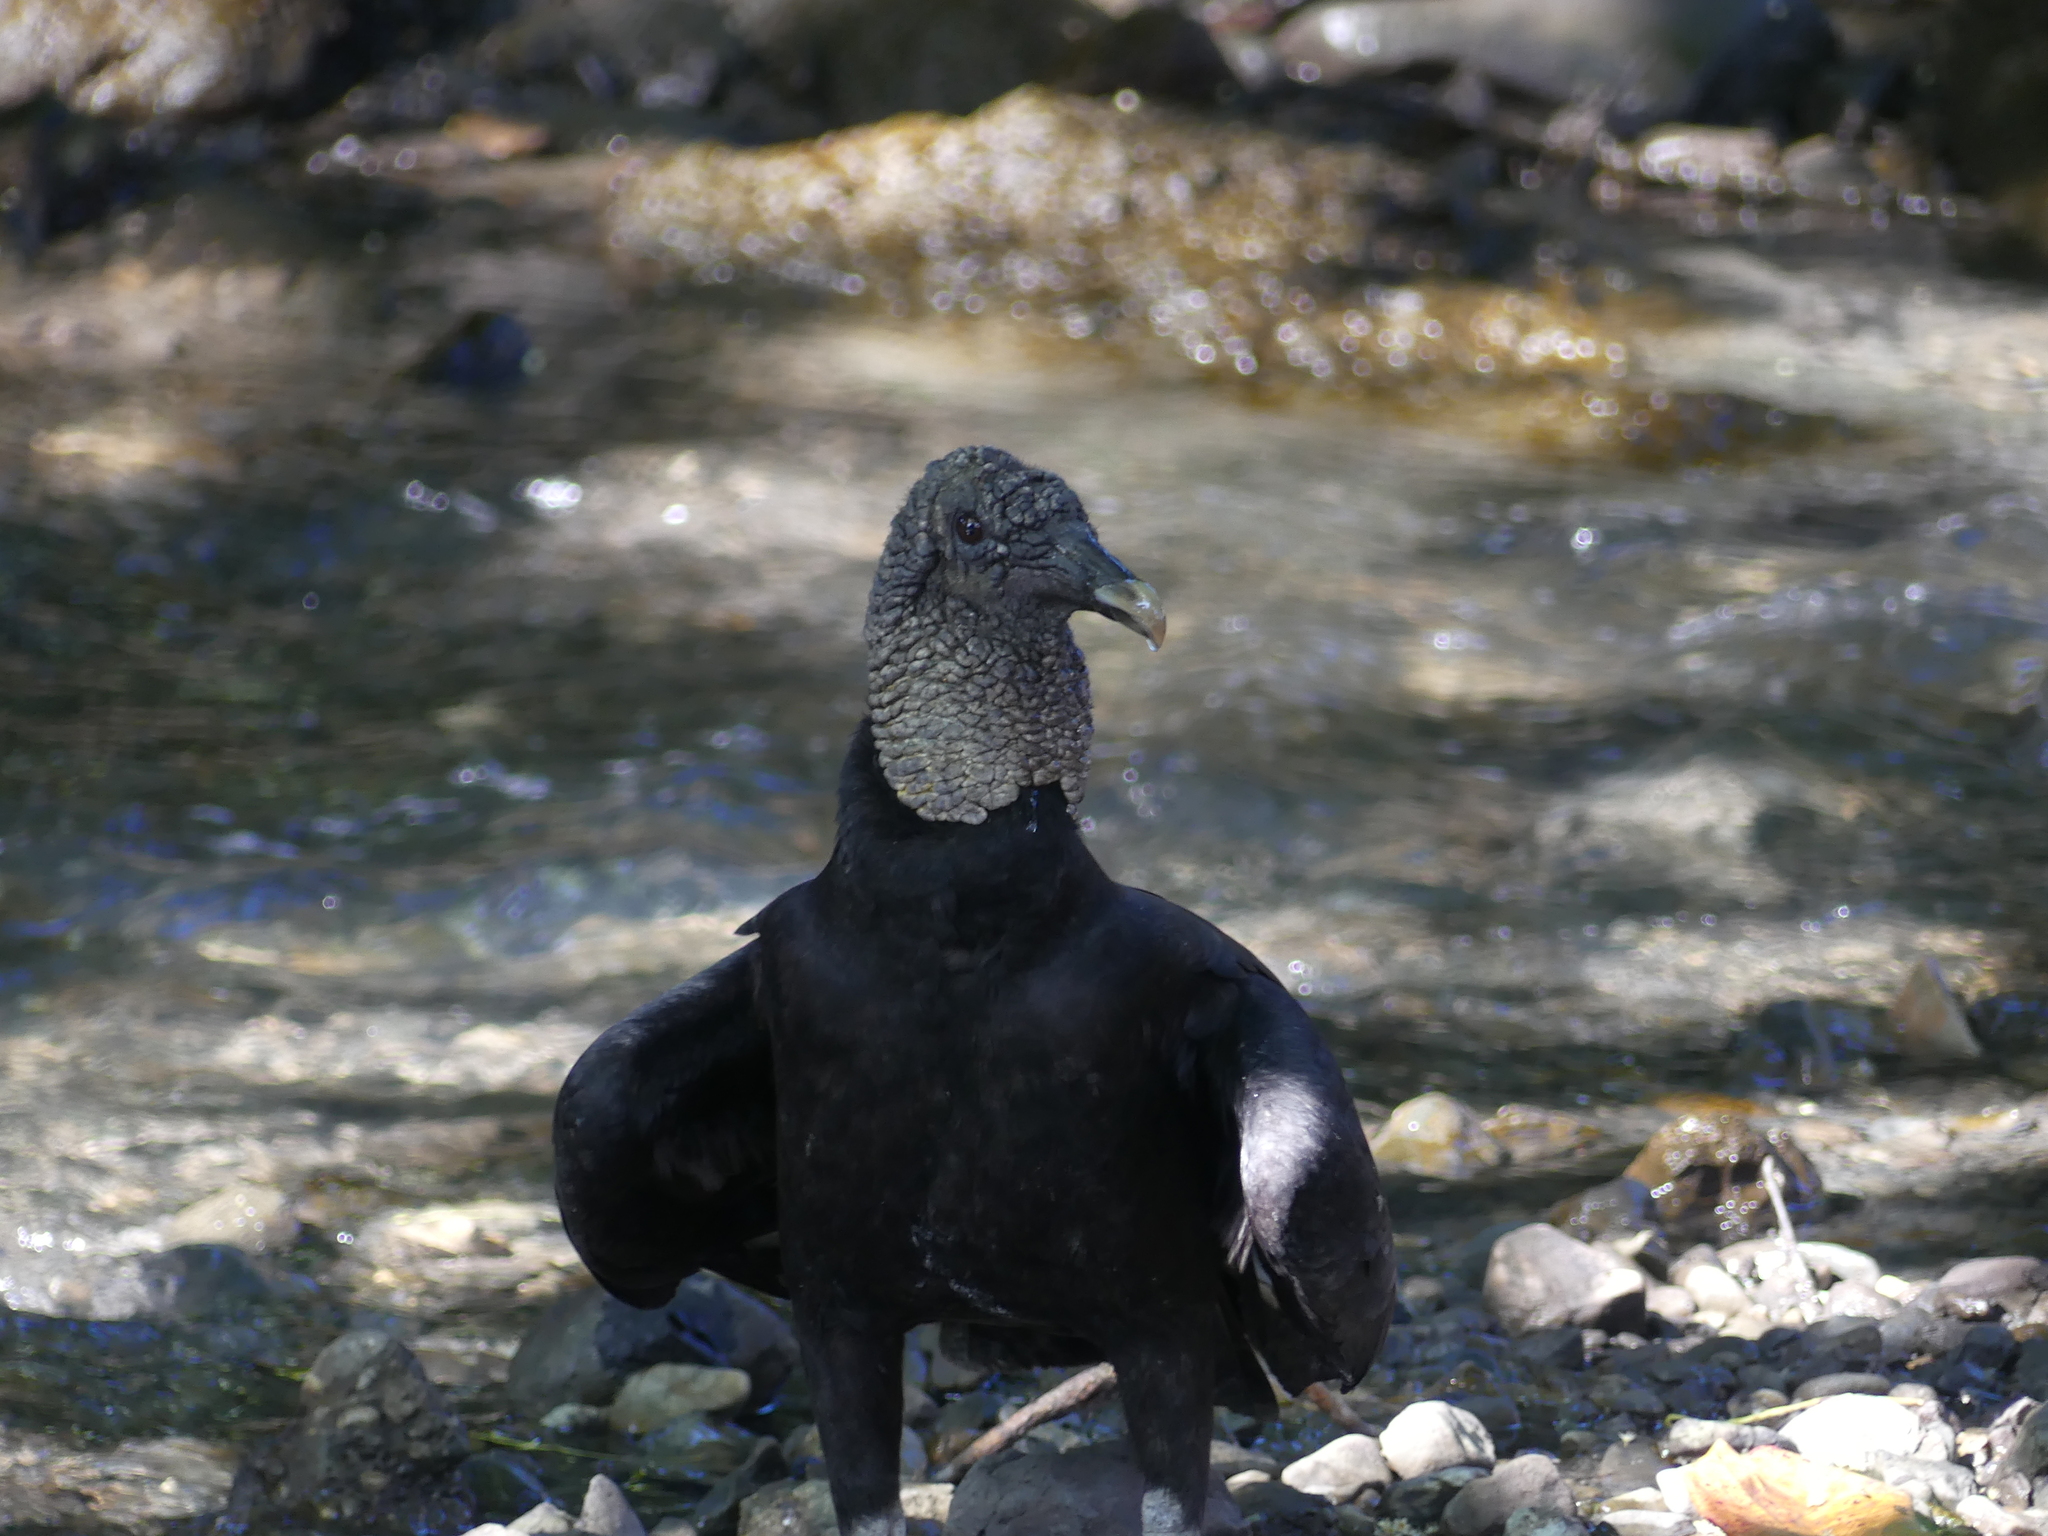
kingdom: Animalia
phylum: Chordata
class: Aves
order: Accipitriformes
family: Cathartidae
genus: Coragyps
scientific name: Coragyps atratus
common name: Black vulture
